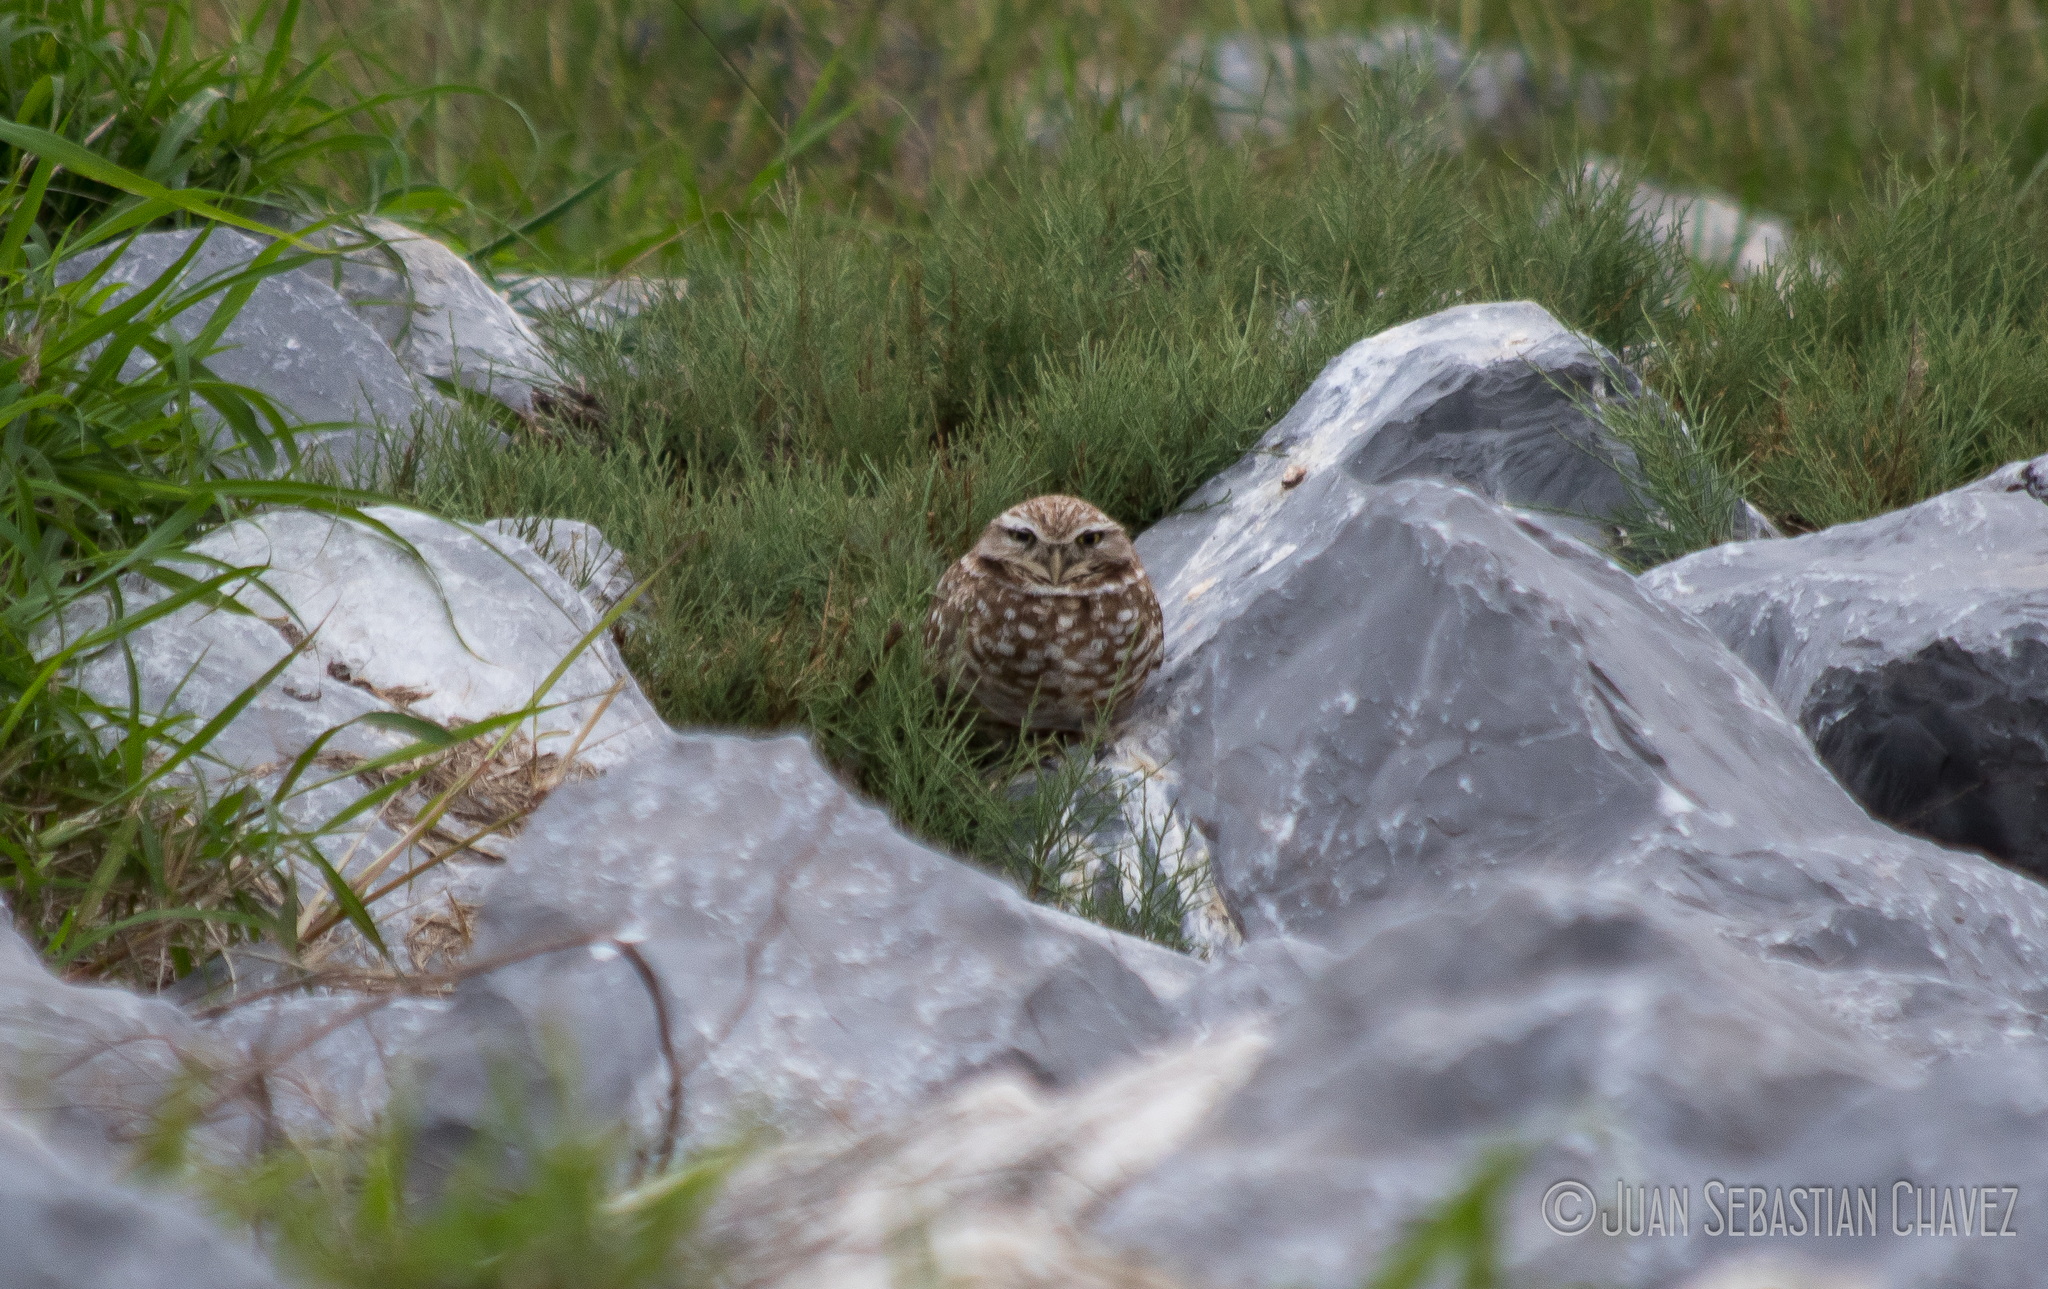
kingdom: Animalia
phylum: Chordata
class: Aves
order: Strigiformes
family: Strigidae
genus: Athene
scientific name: Athene cunicularia
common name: Burrowing owl
